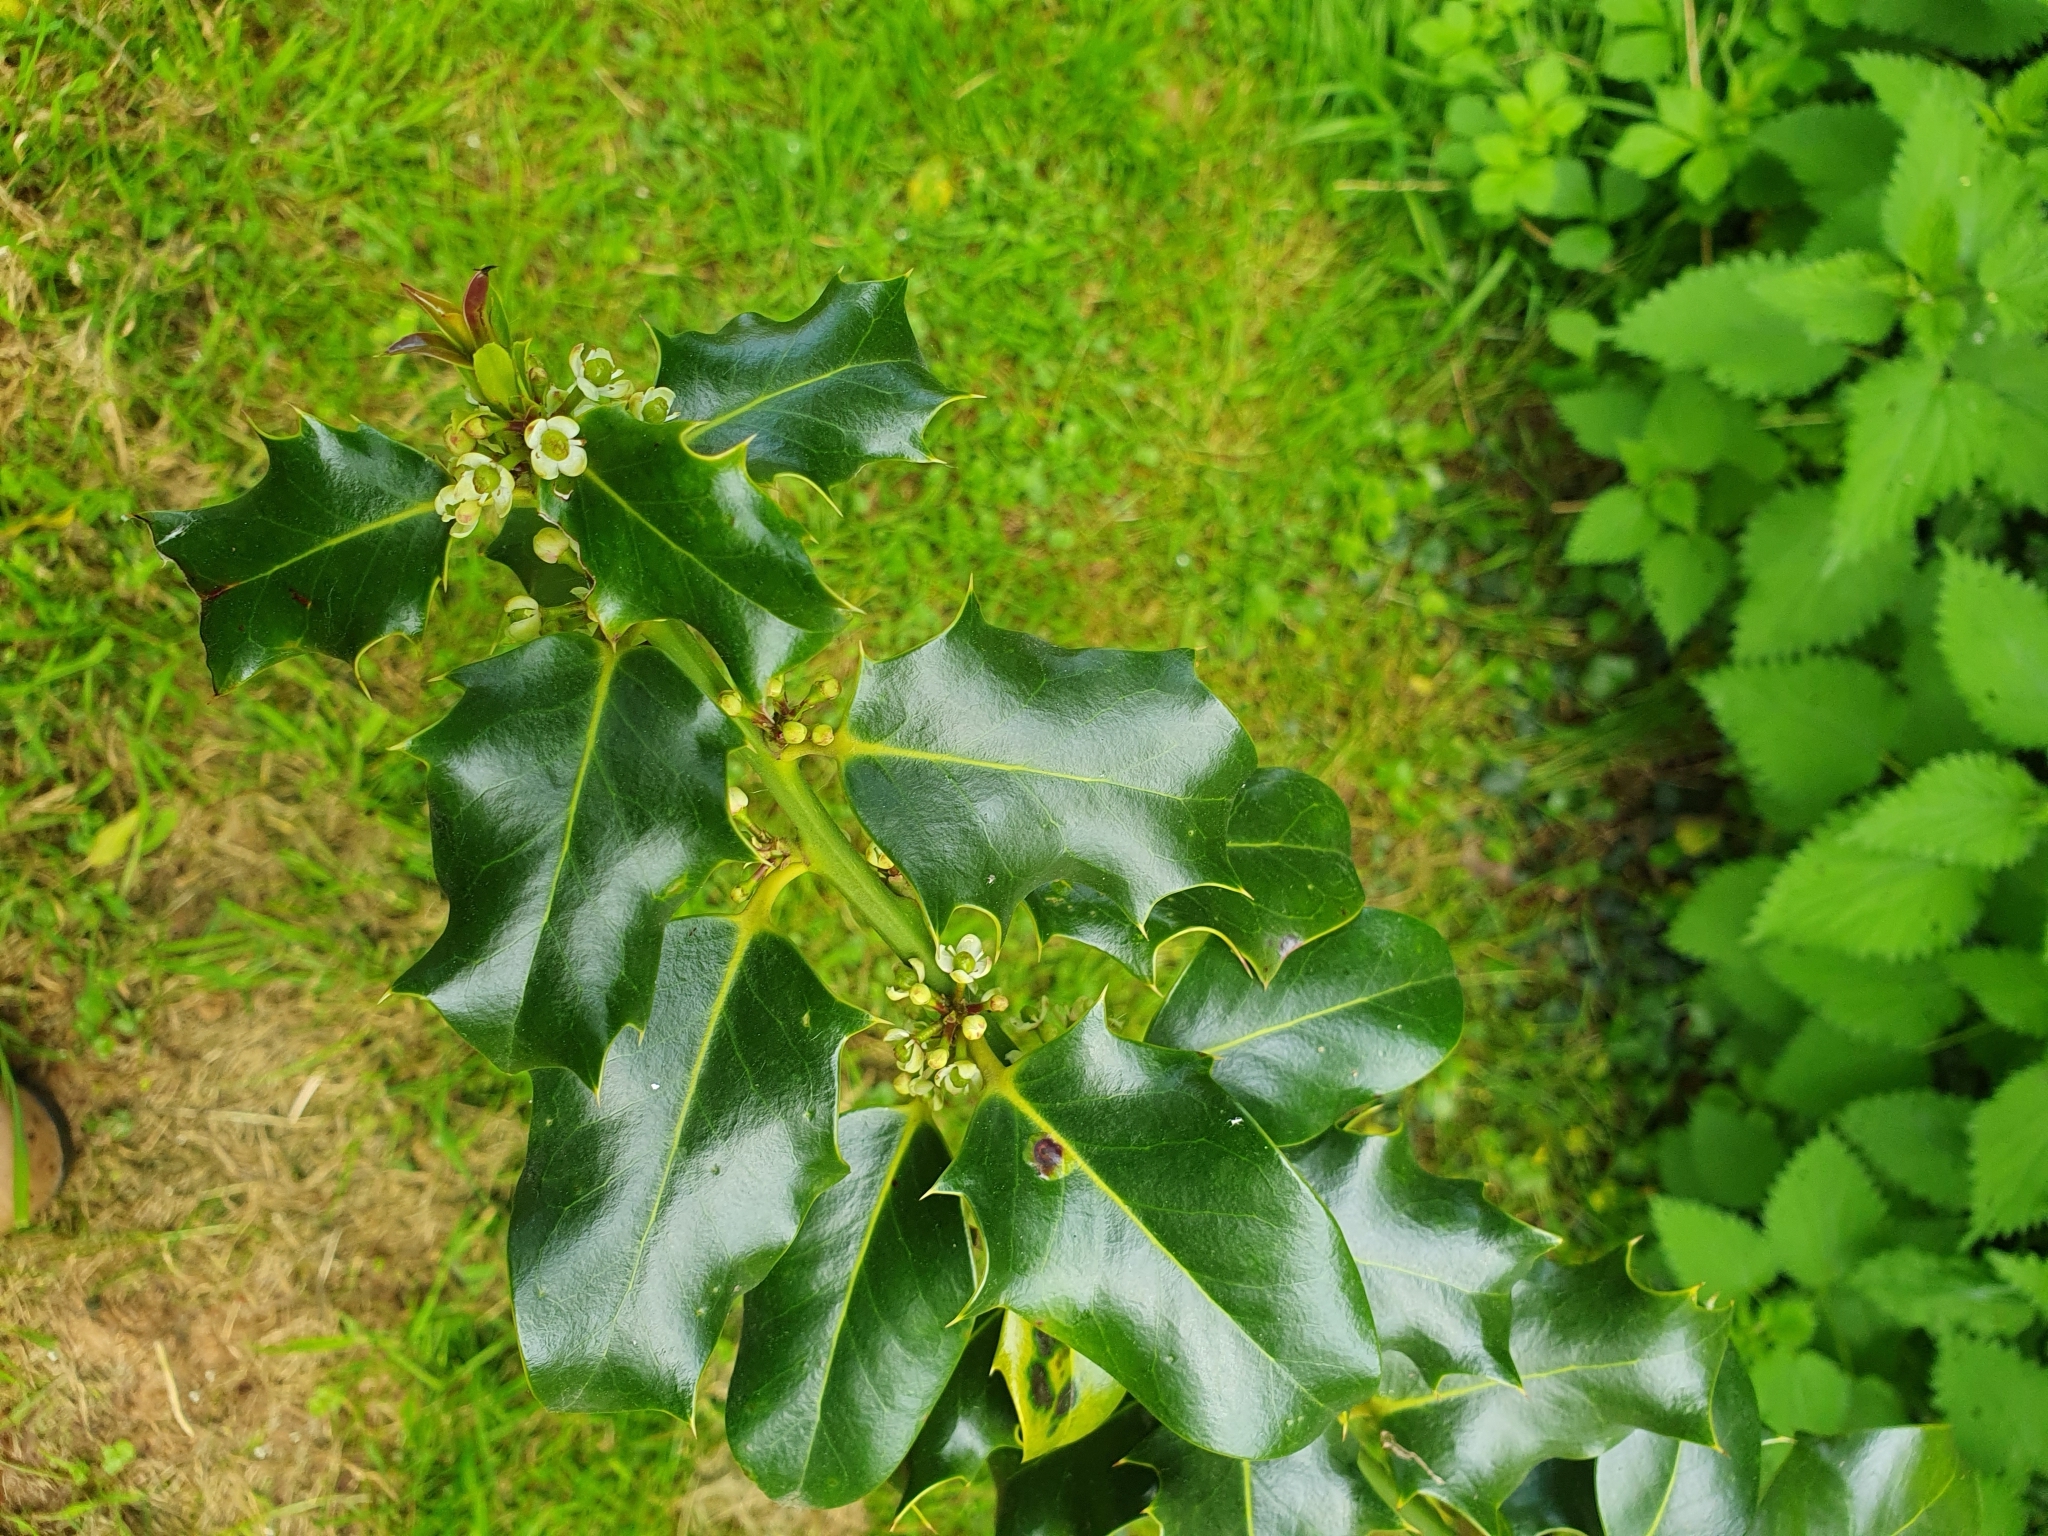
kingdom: Plantae
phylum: Tracheophyta
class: Magnoliopsida
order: Aquifoliales
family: Aquifoliaceae
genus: Ilex
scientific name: Ilex aquifolium
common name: English holly
